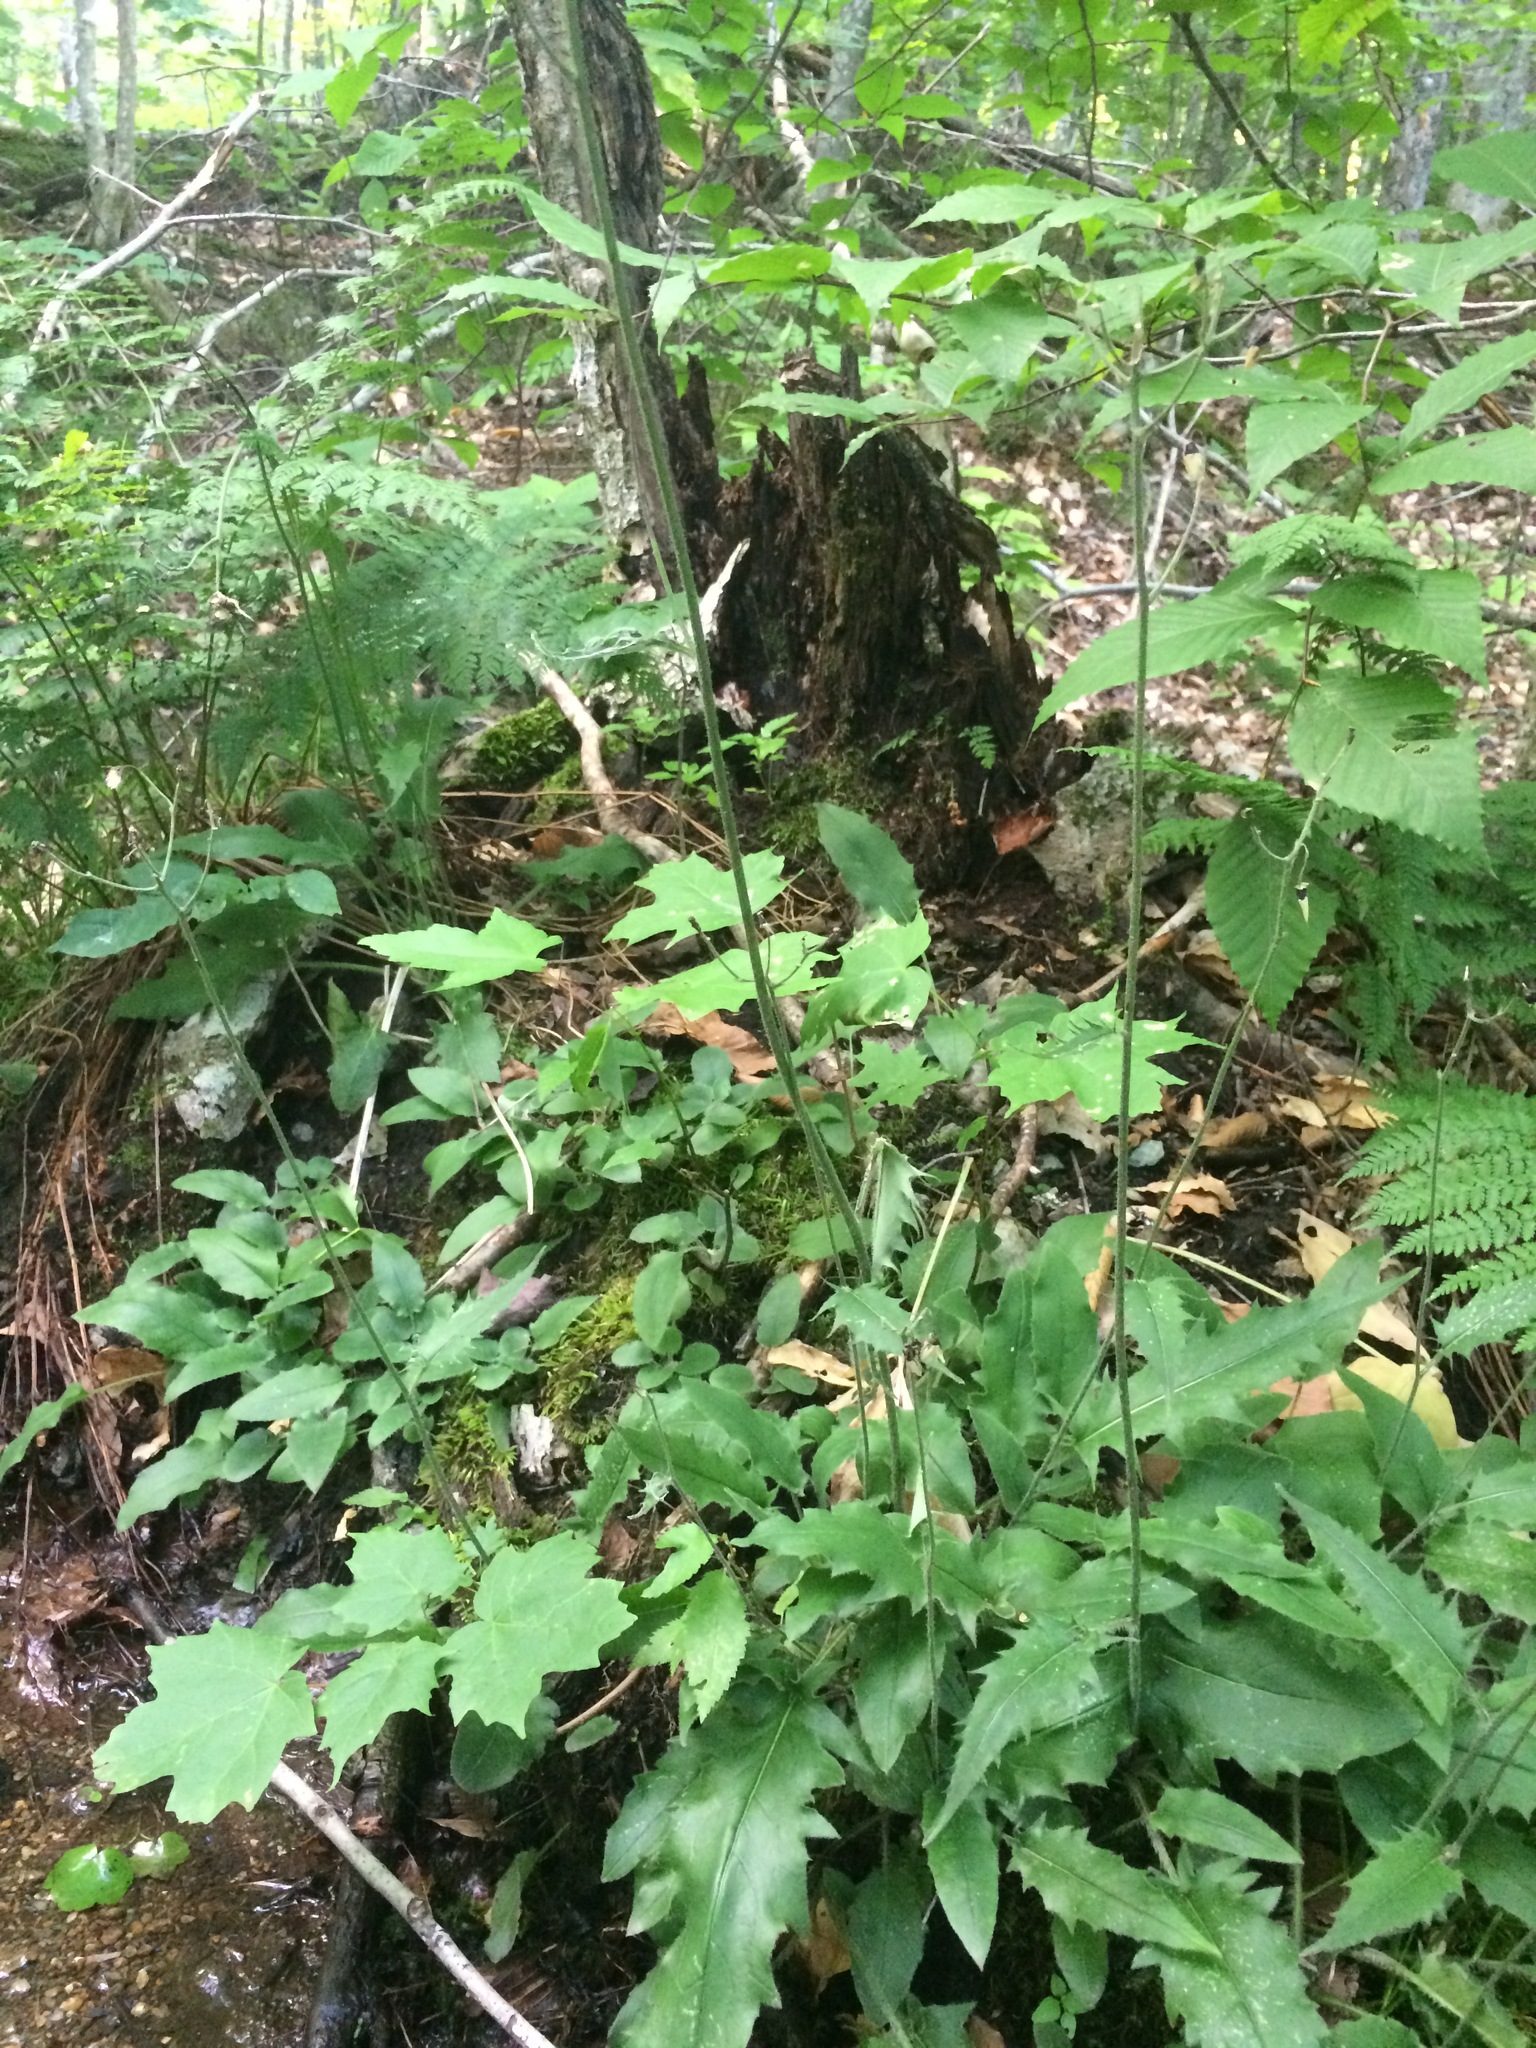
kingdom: Plantae
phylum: Tracheophyta
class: Magnoliopsida
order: Asterales
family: Asteraceae
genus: Hieracium
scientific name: Hieracium murorum
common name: Wall hawkweed
